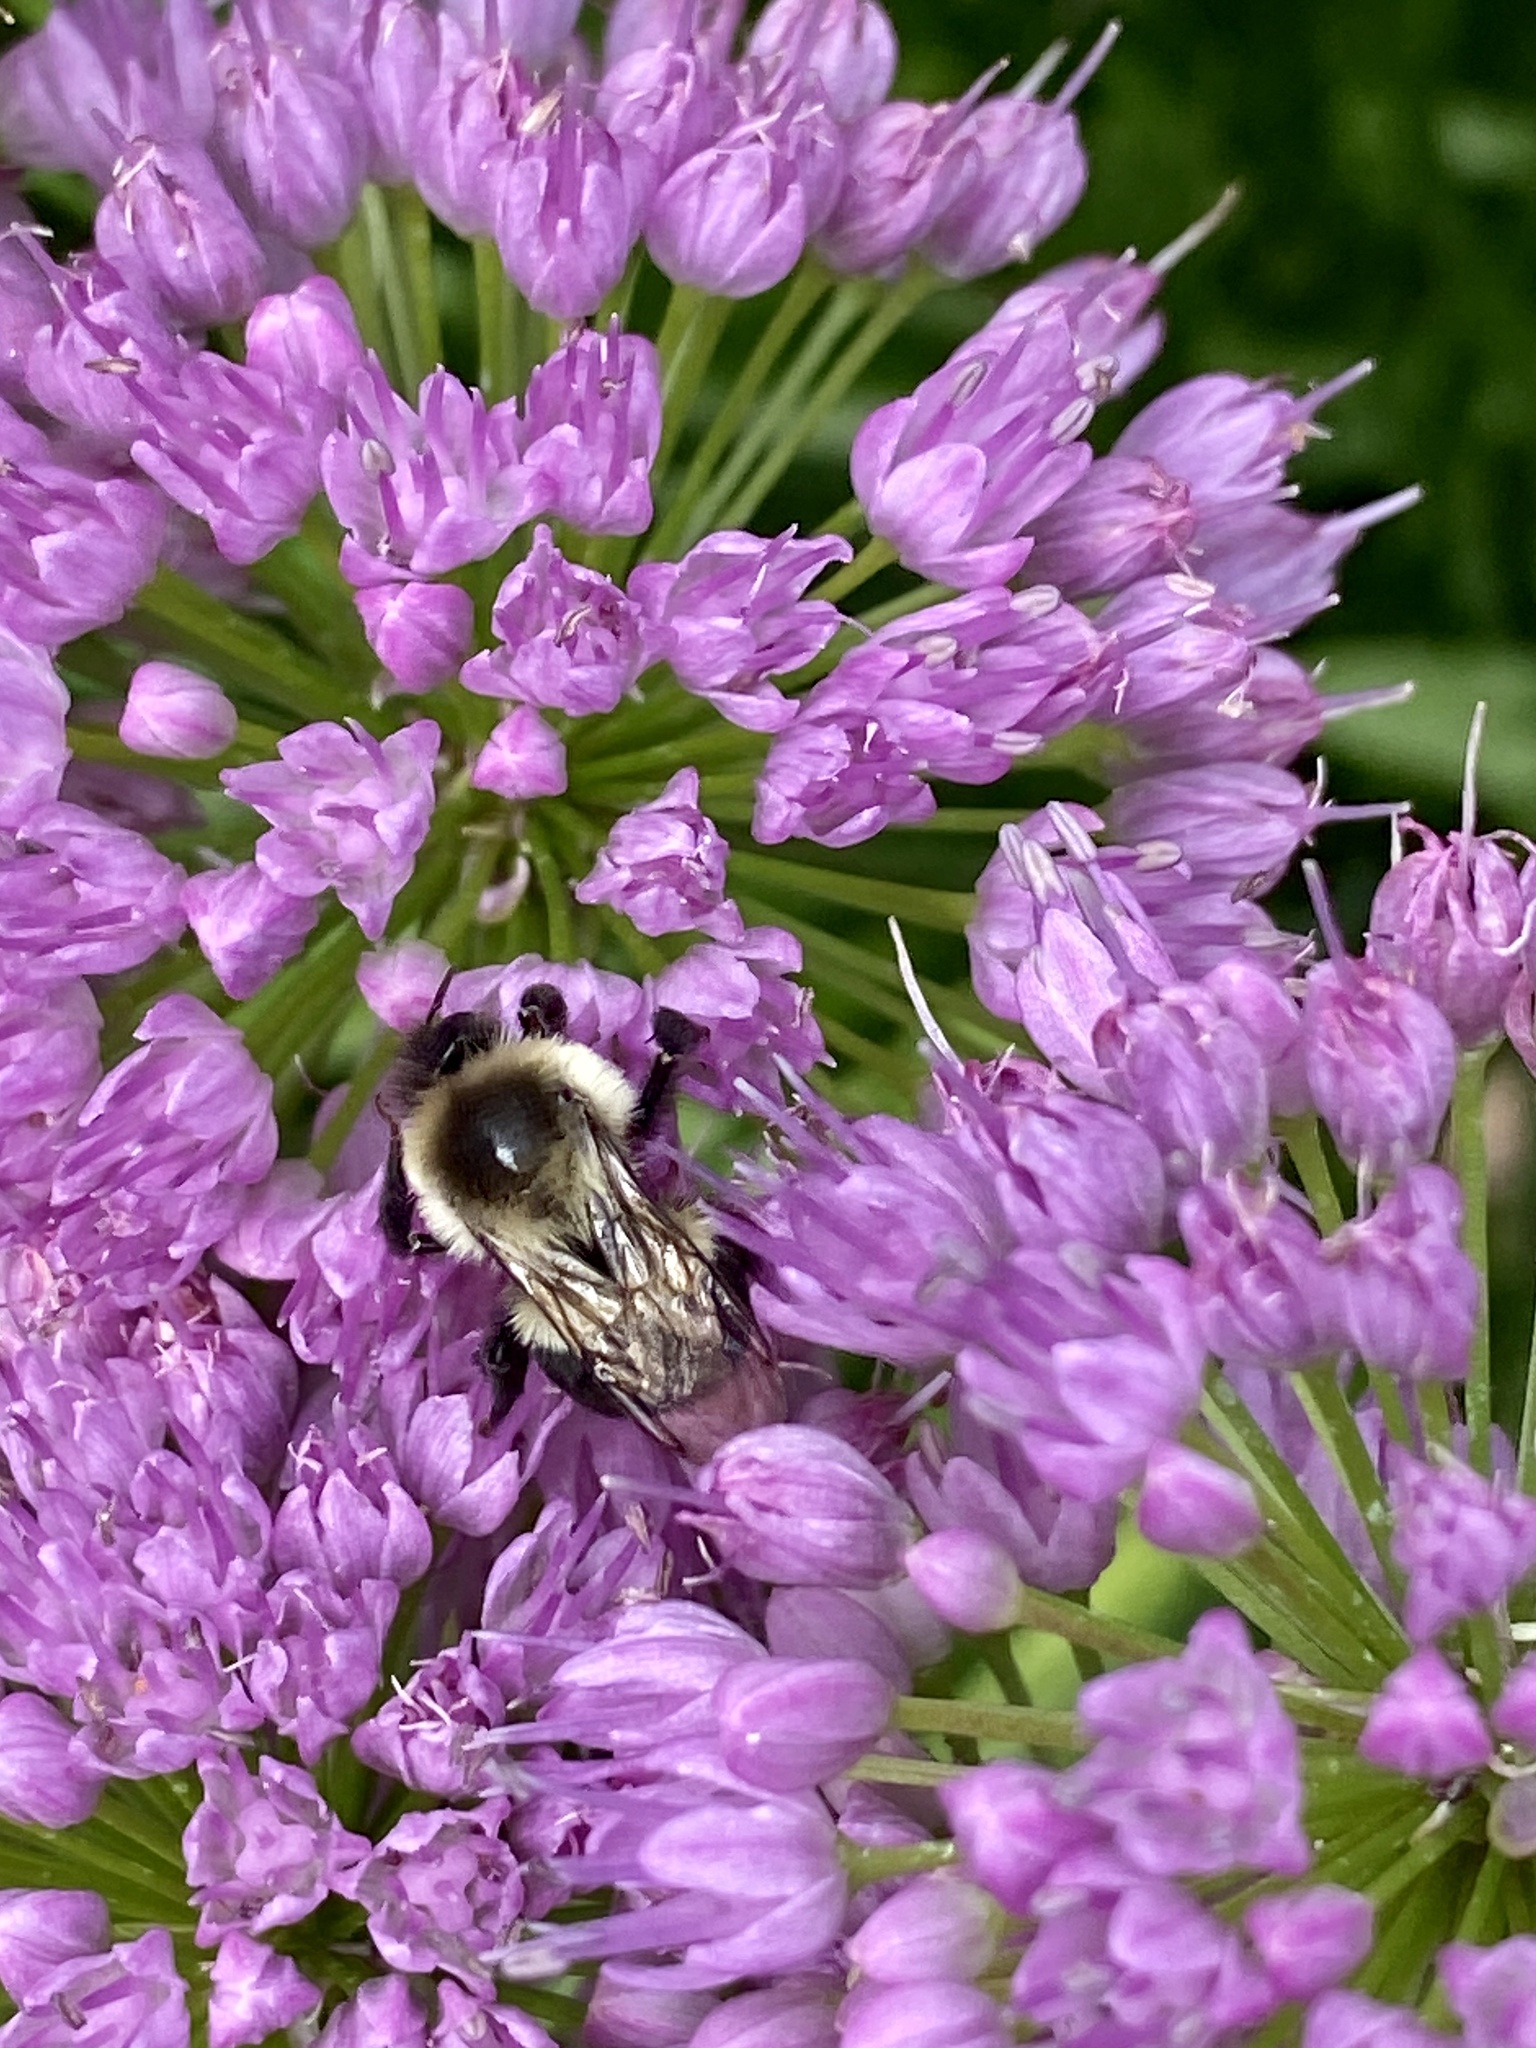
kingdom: Animalia
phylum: Arthropoda
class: Insecta
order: Hymenoptera
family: Apidae
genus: Bombus
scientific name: Bombus impatiens
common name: Common eastern bumble bee
